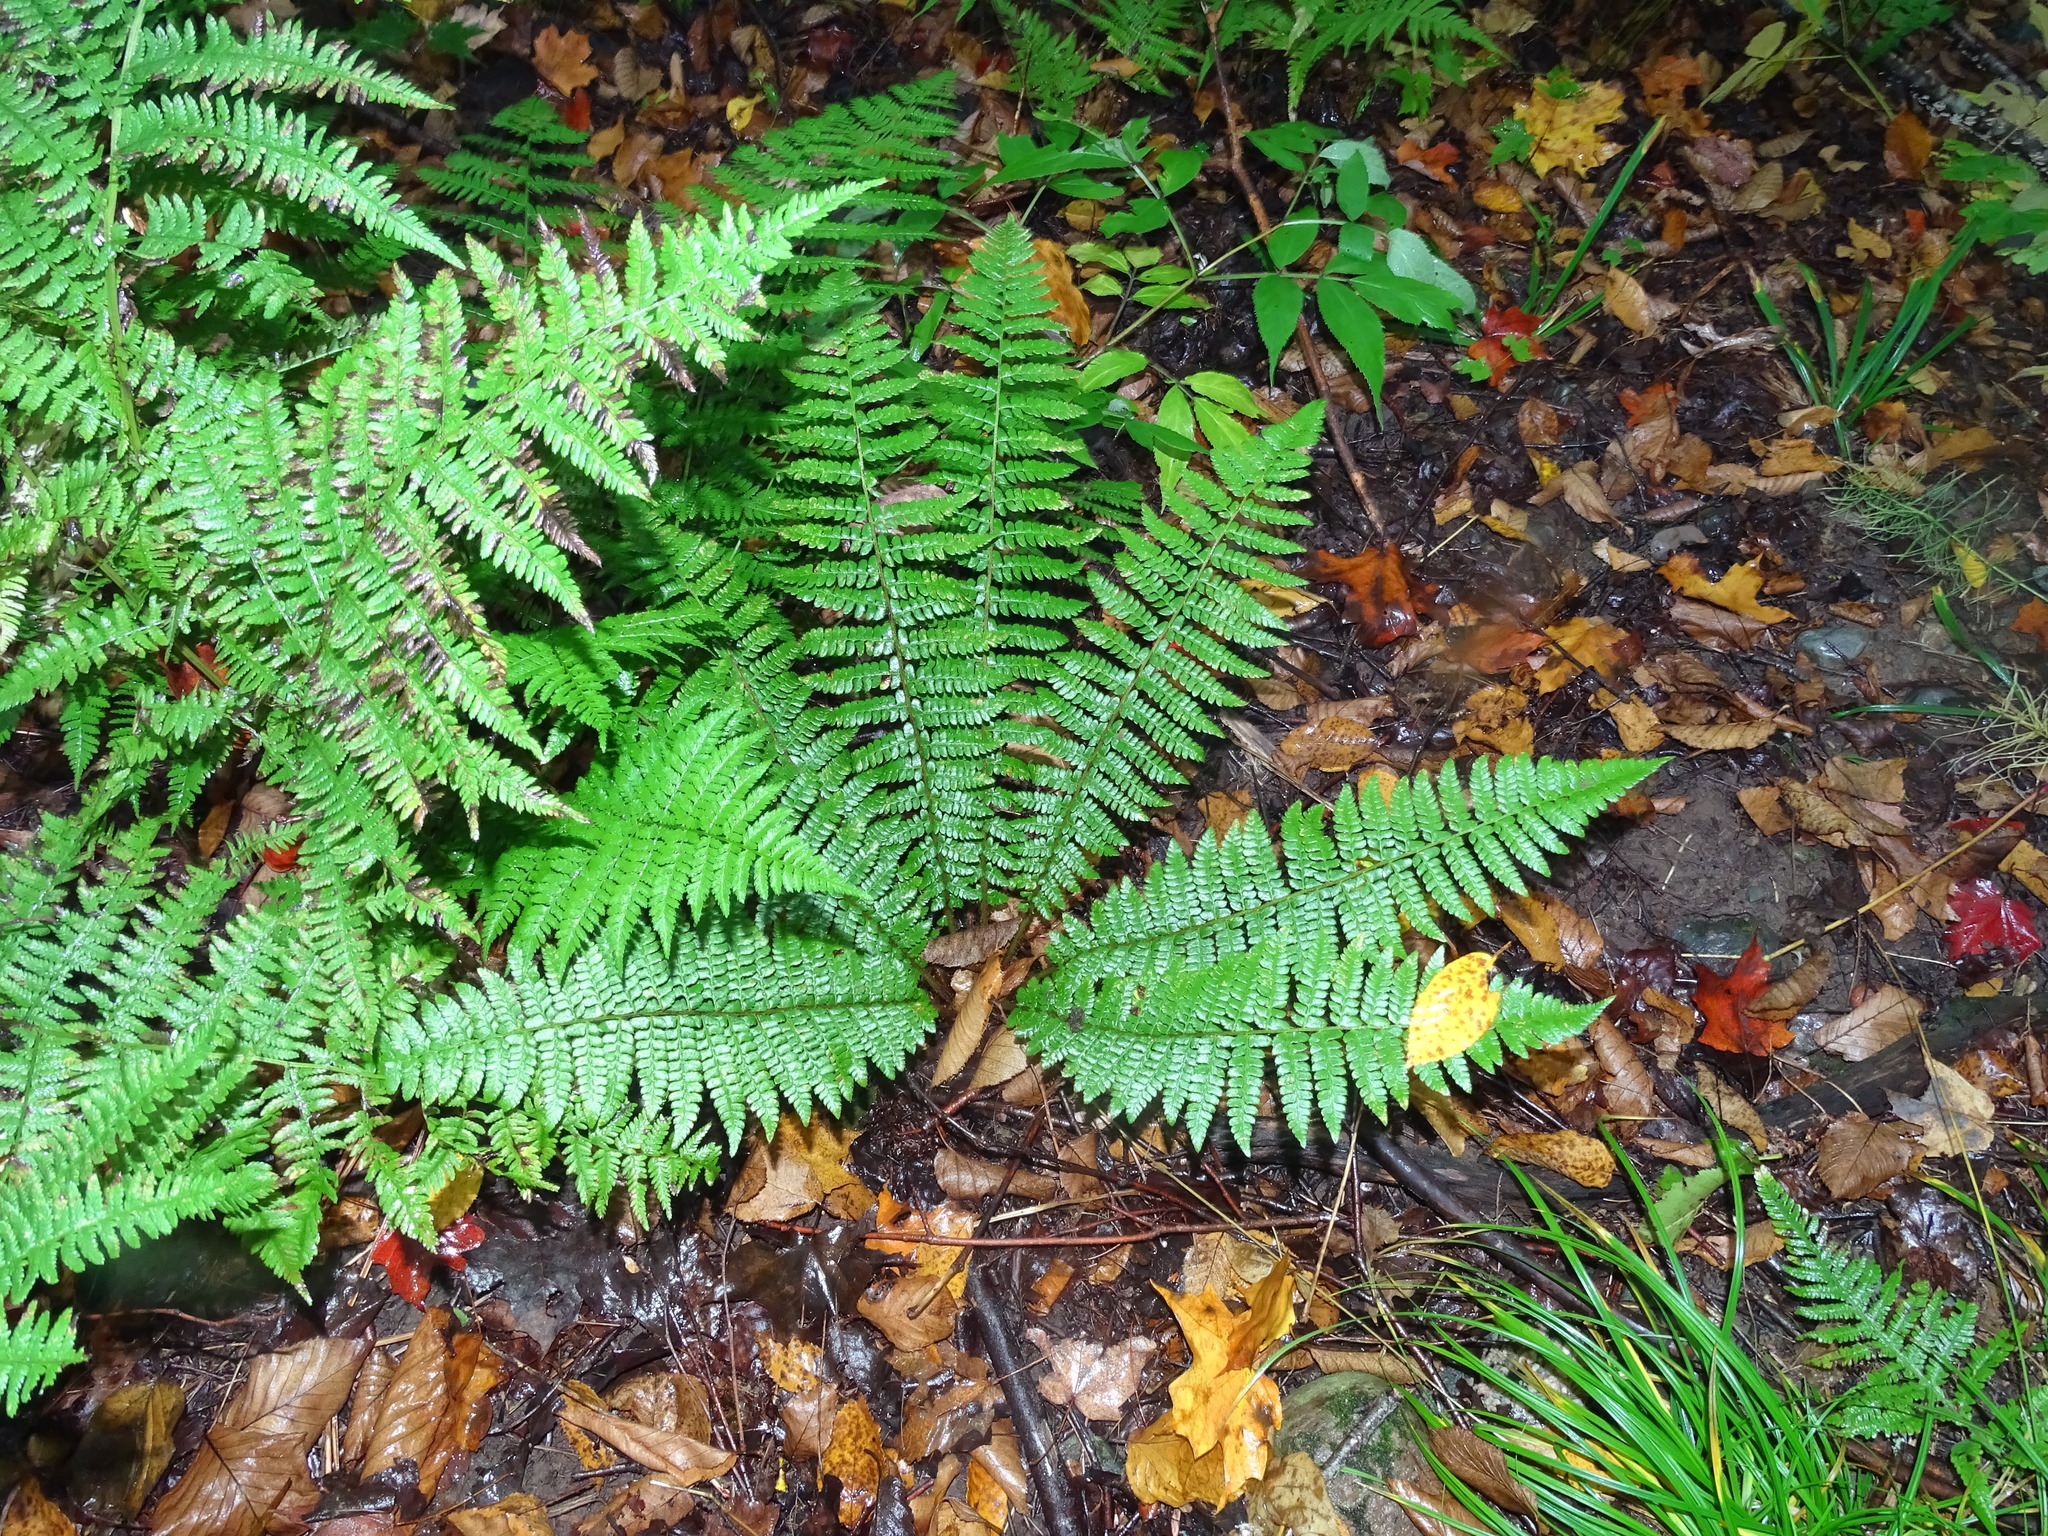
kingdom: Plantae
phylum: Tracheophyta
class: Polypodiopsida
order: Polypodiales
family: Dryopteridaceae
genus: Polystichum
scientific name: Polystichum braunii
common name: Braun's holly fern
